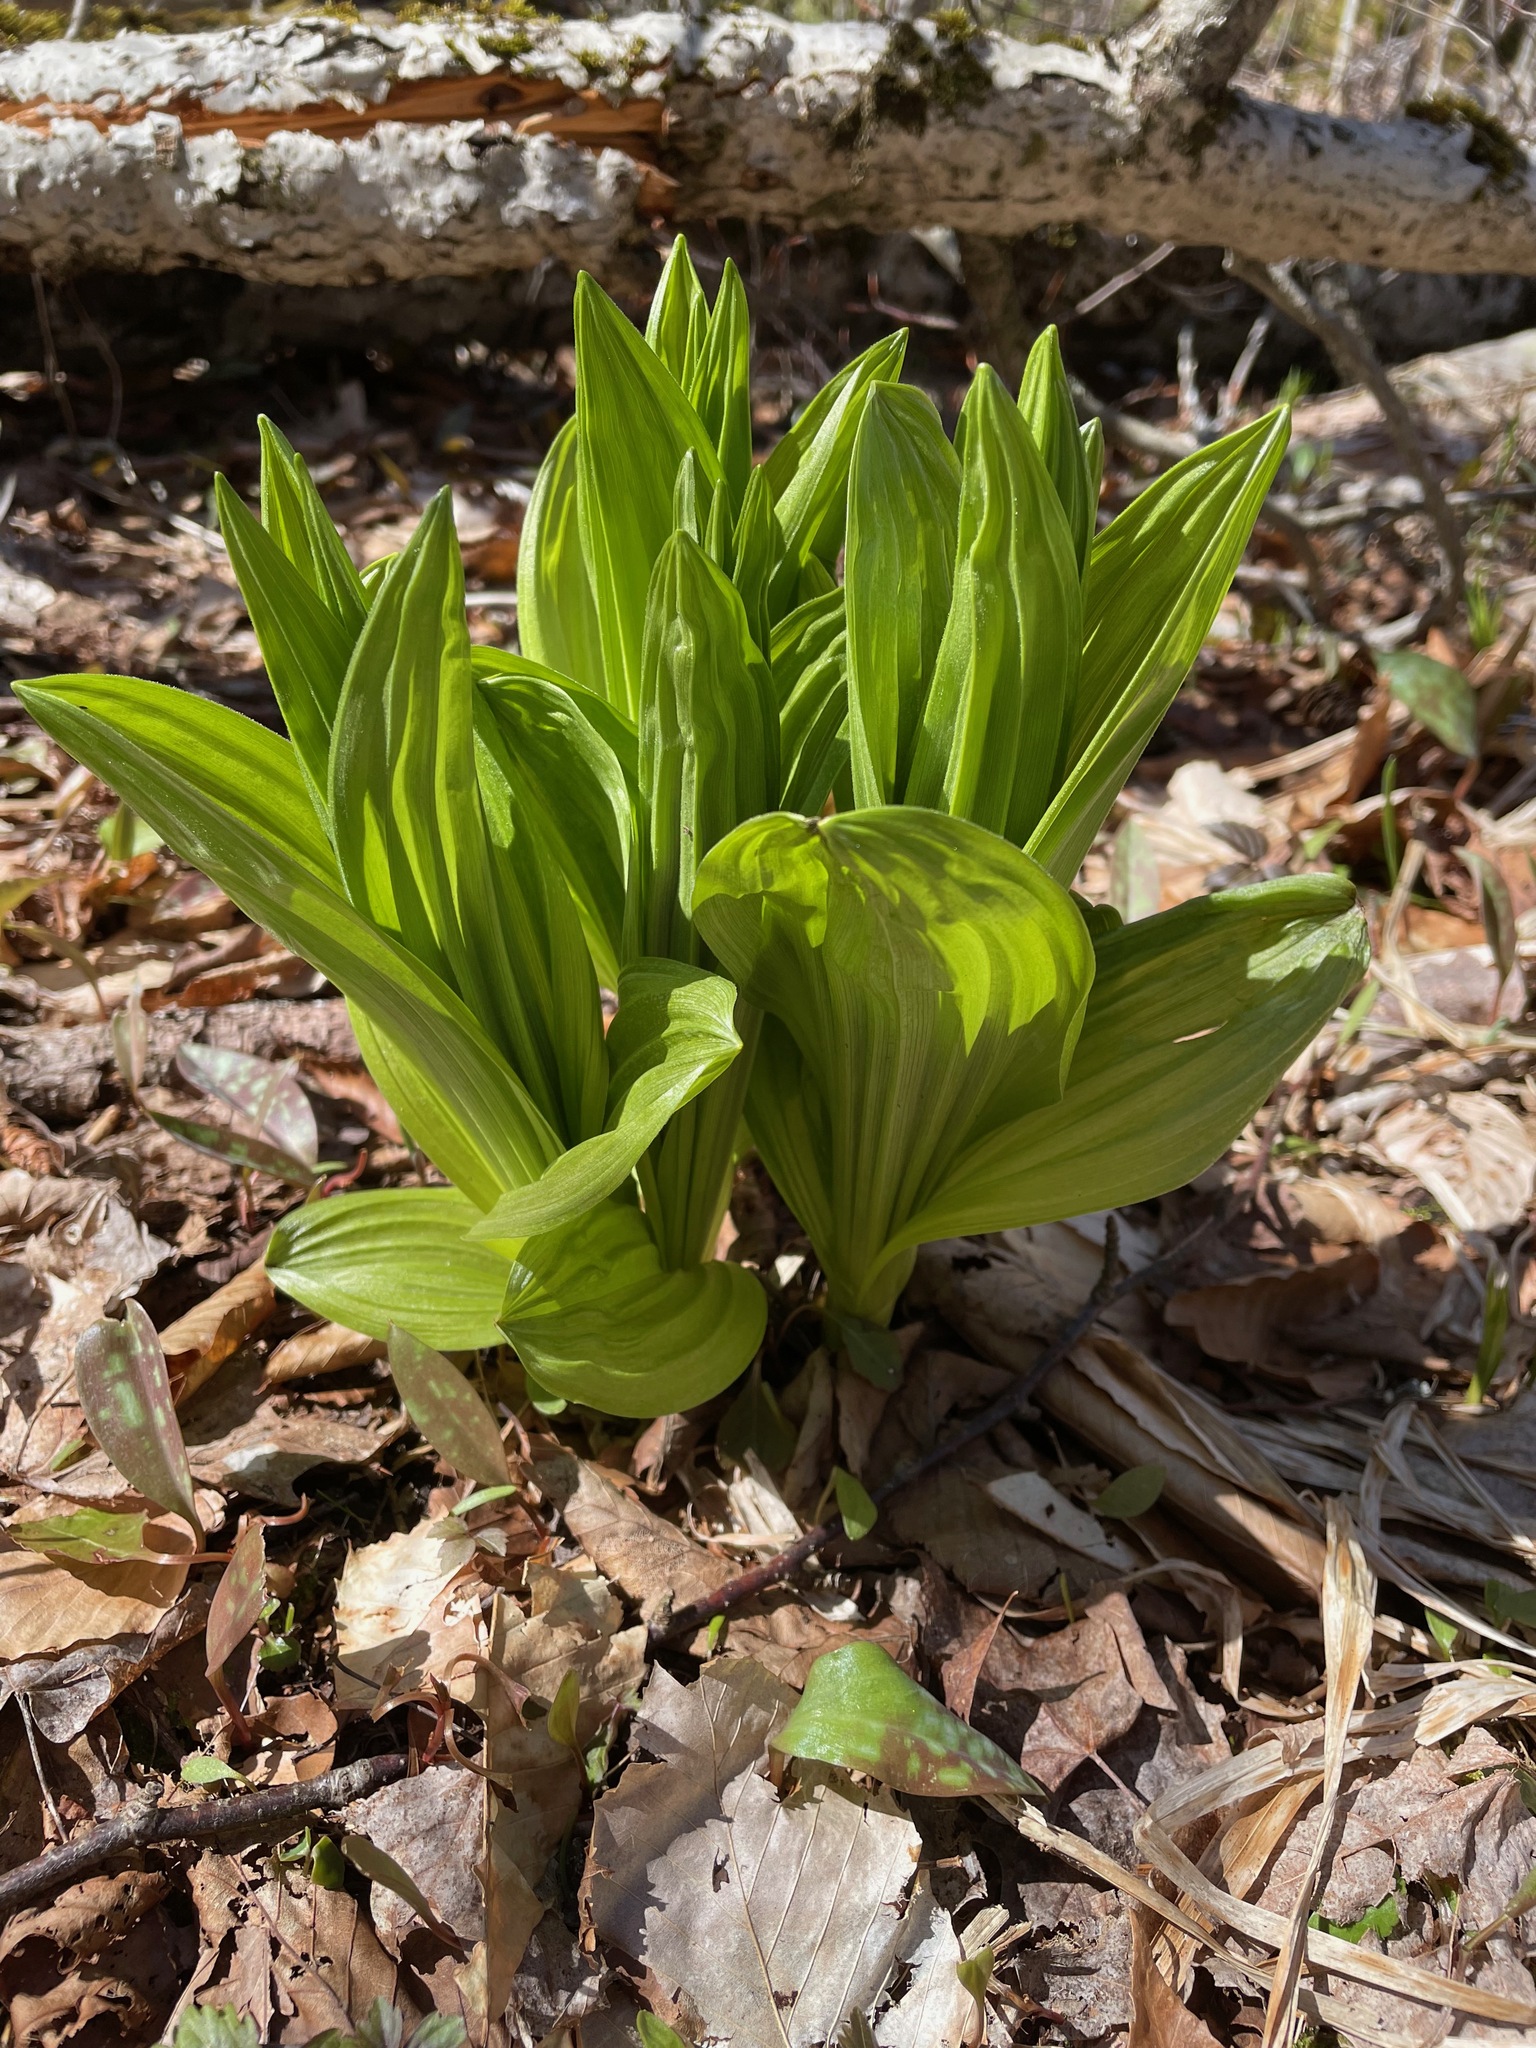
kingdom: Plantae
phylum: Tracheophyta
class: Liliopsida
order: Liliales
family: Melanthiaceae
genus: Veratrum
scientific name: Veratrum viride
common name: American false hellebore
